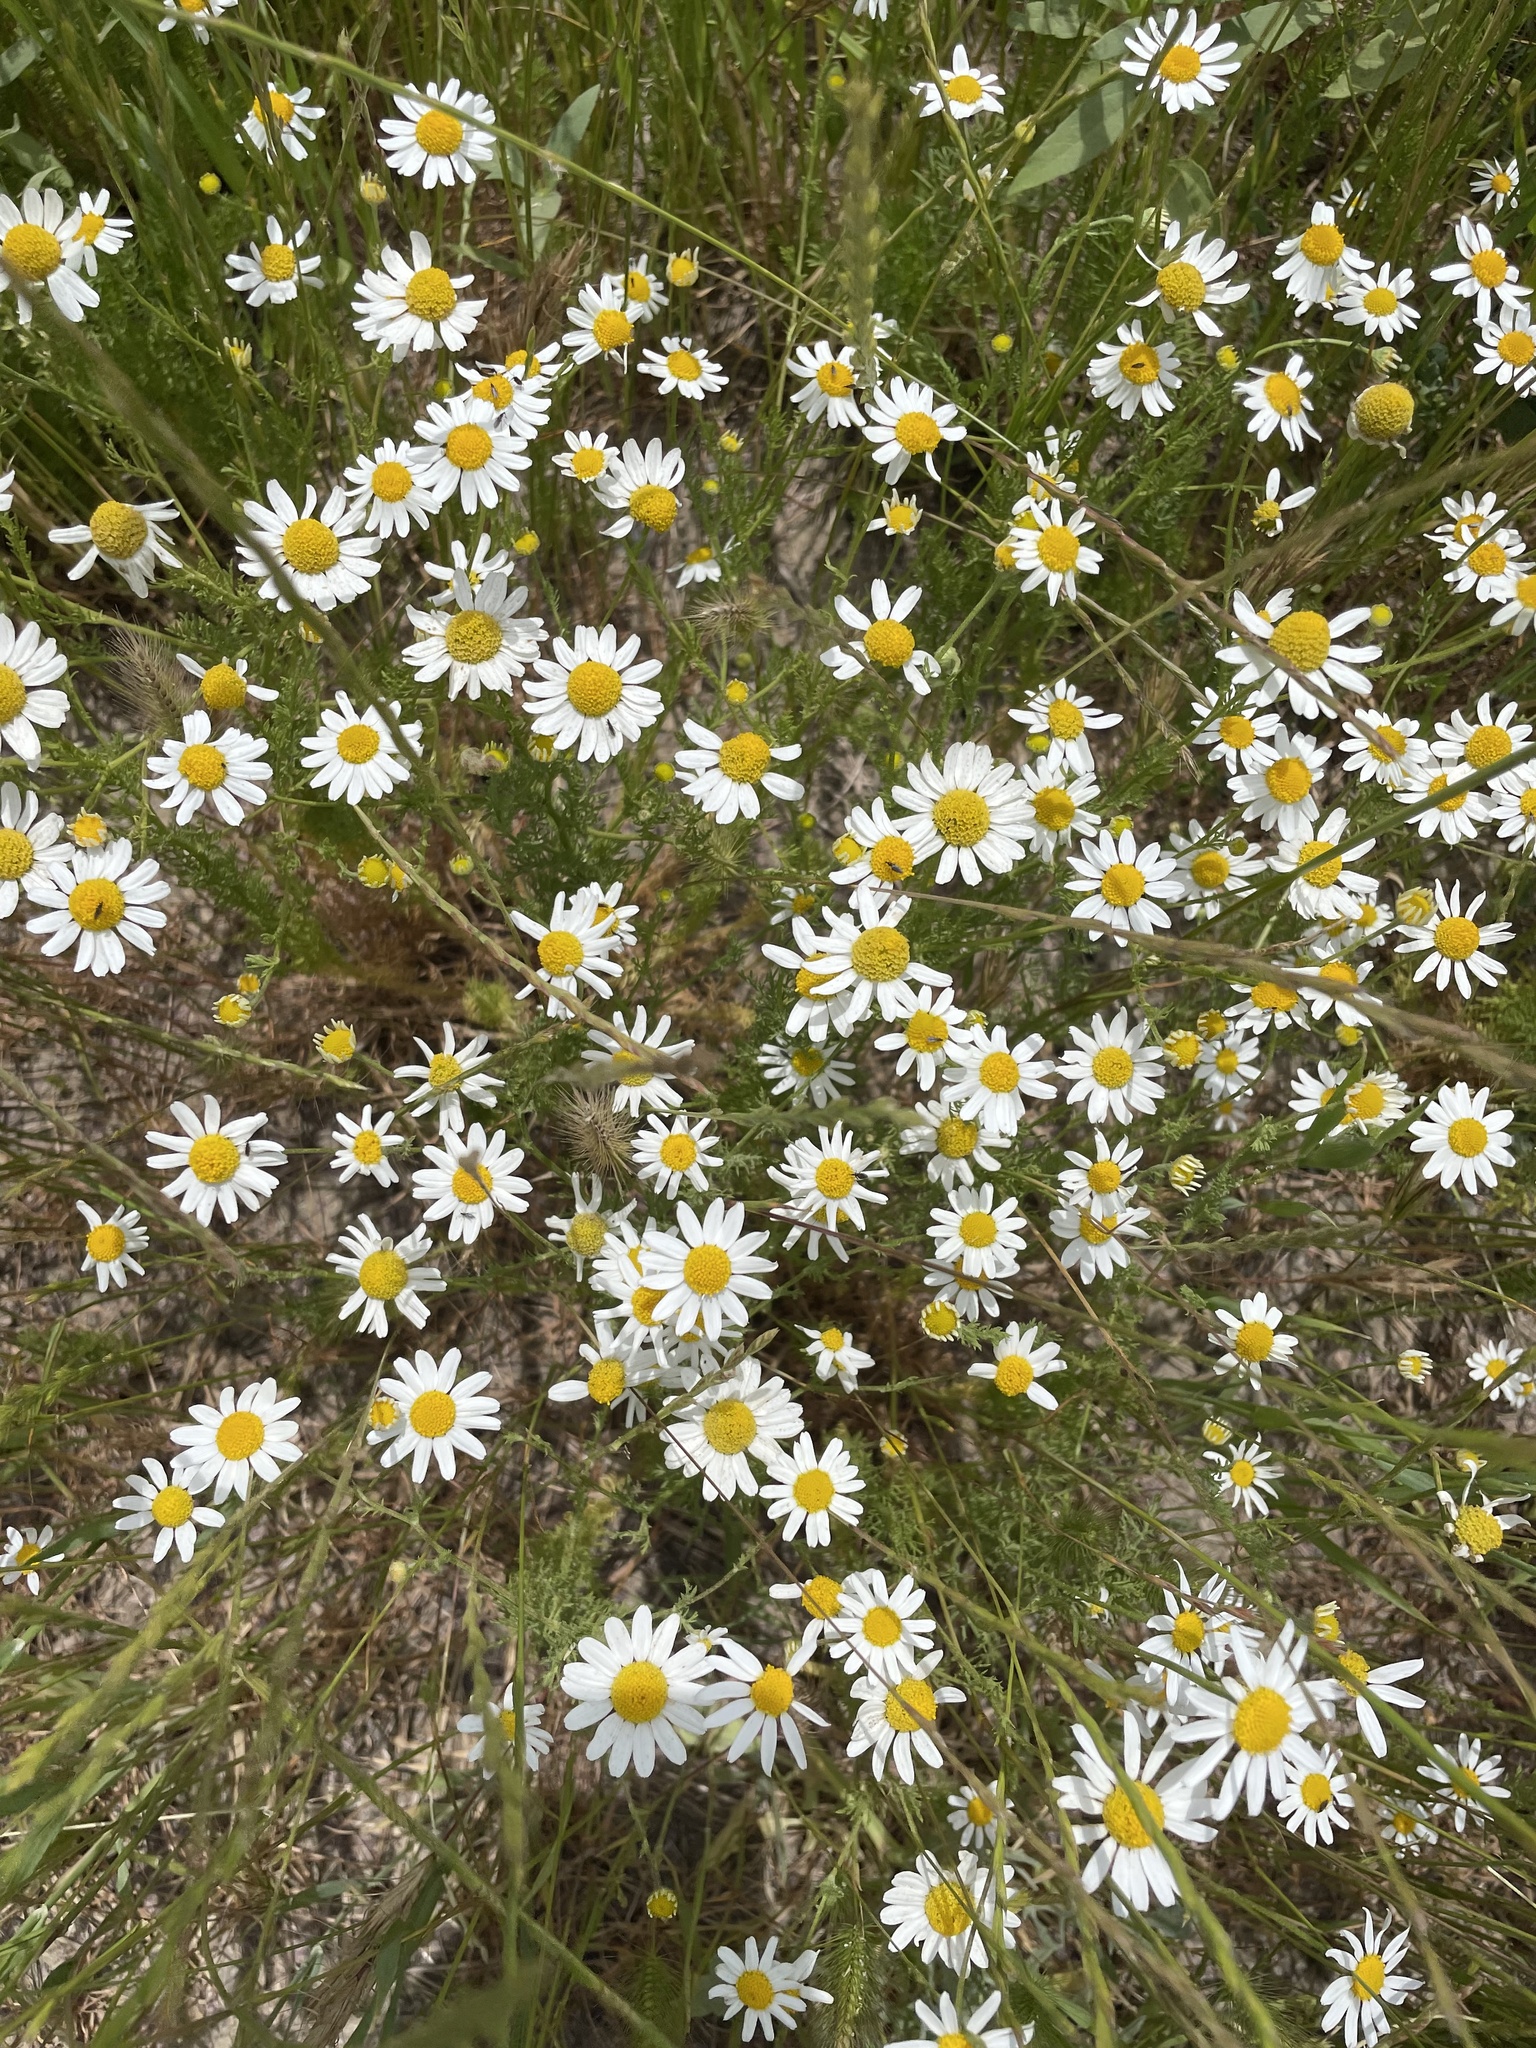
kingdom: Plantae
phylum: Tracheophyta
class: Magnoliopsida
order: Asterales
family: Asteraceae
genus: Anthemis
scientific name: Anthemis cotula
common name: Stinking chamomile
